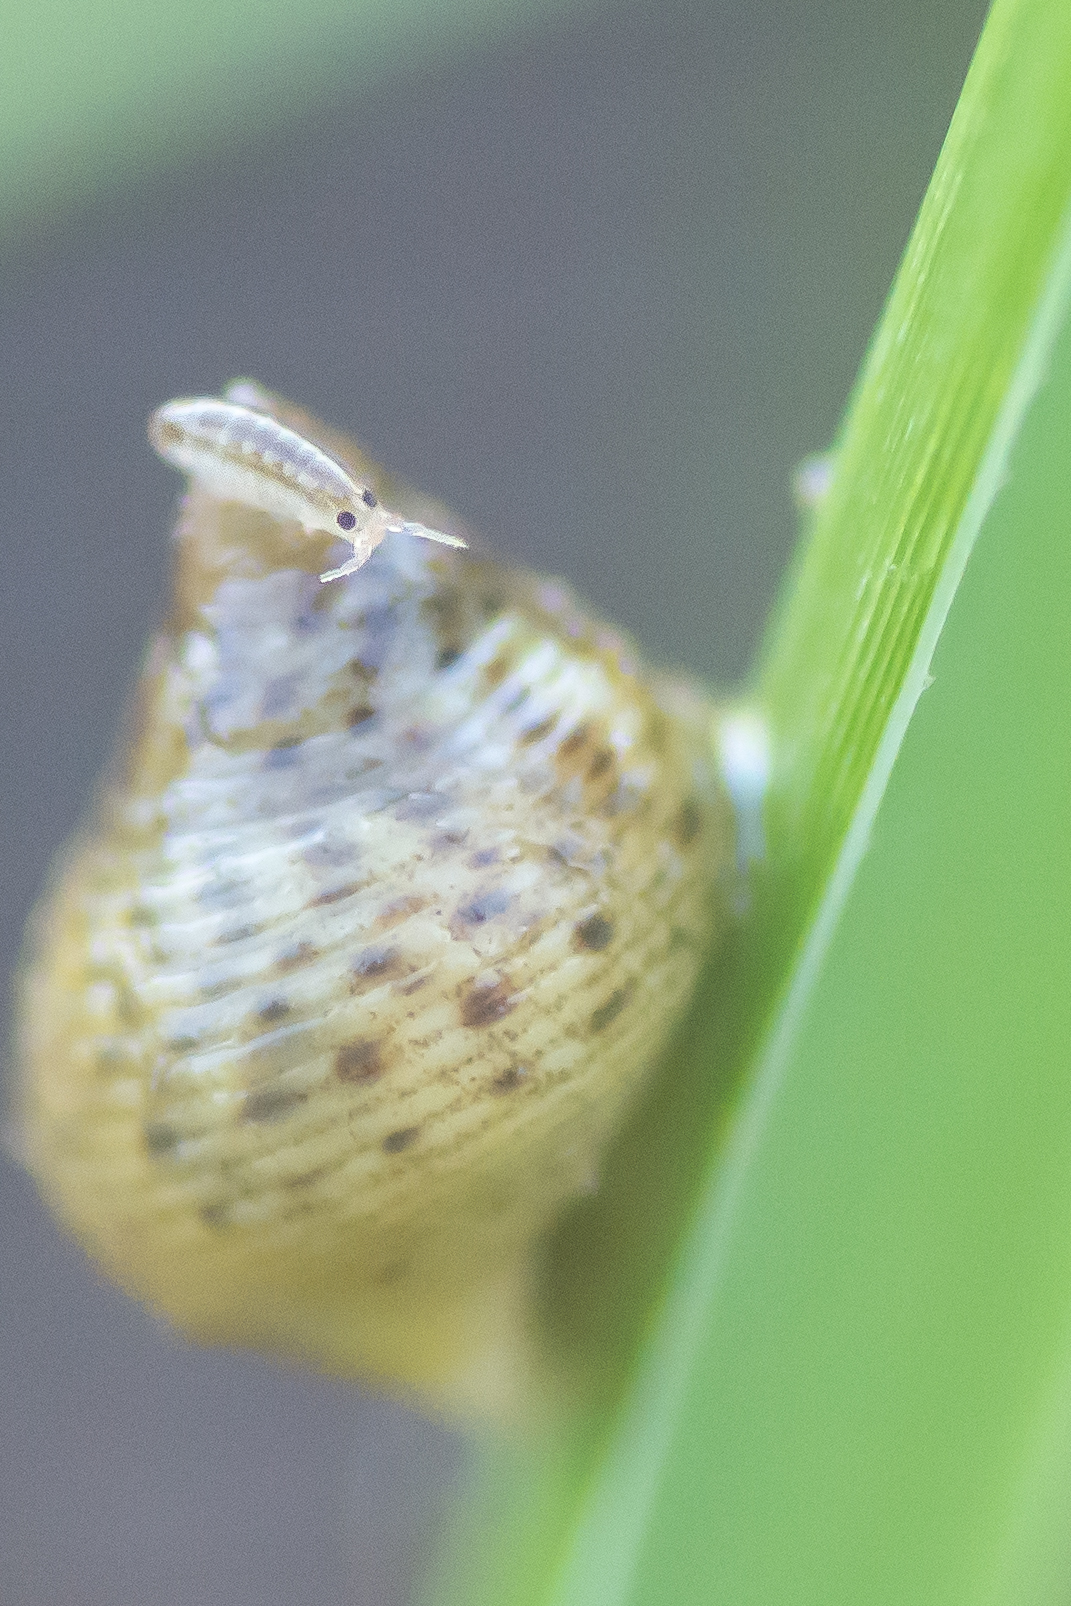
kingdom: Animalia
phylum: Mollusca
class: Gastropoda
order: Littorinimorpha
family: Littorinidae
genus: Littoraria
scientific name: Littoraria irrorata
